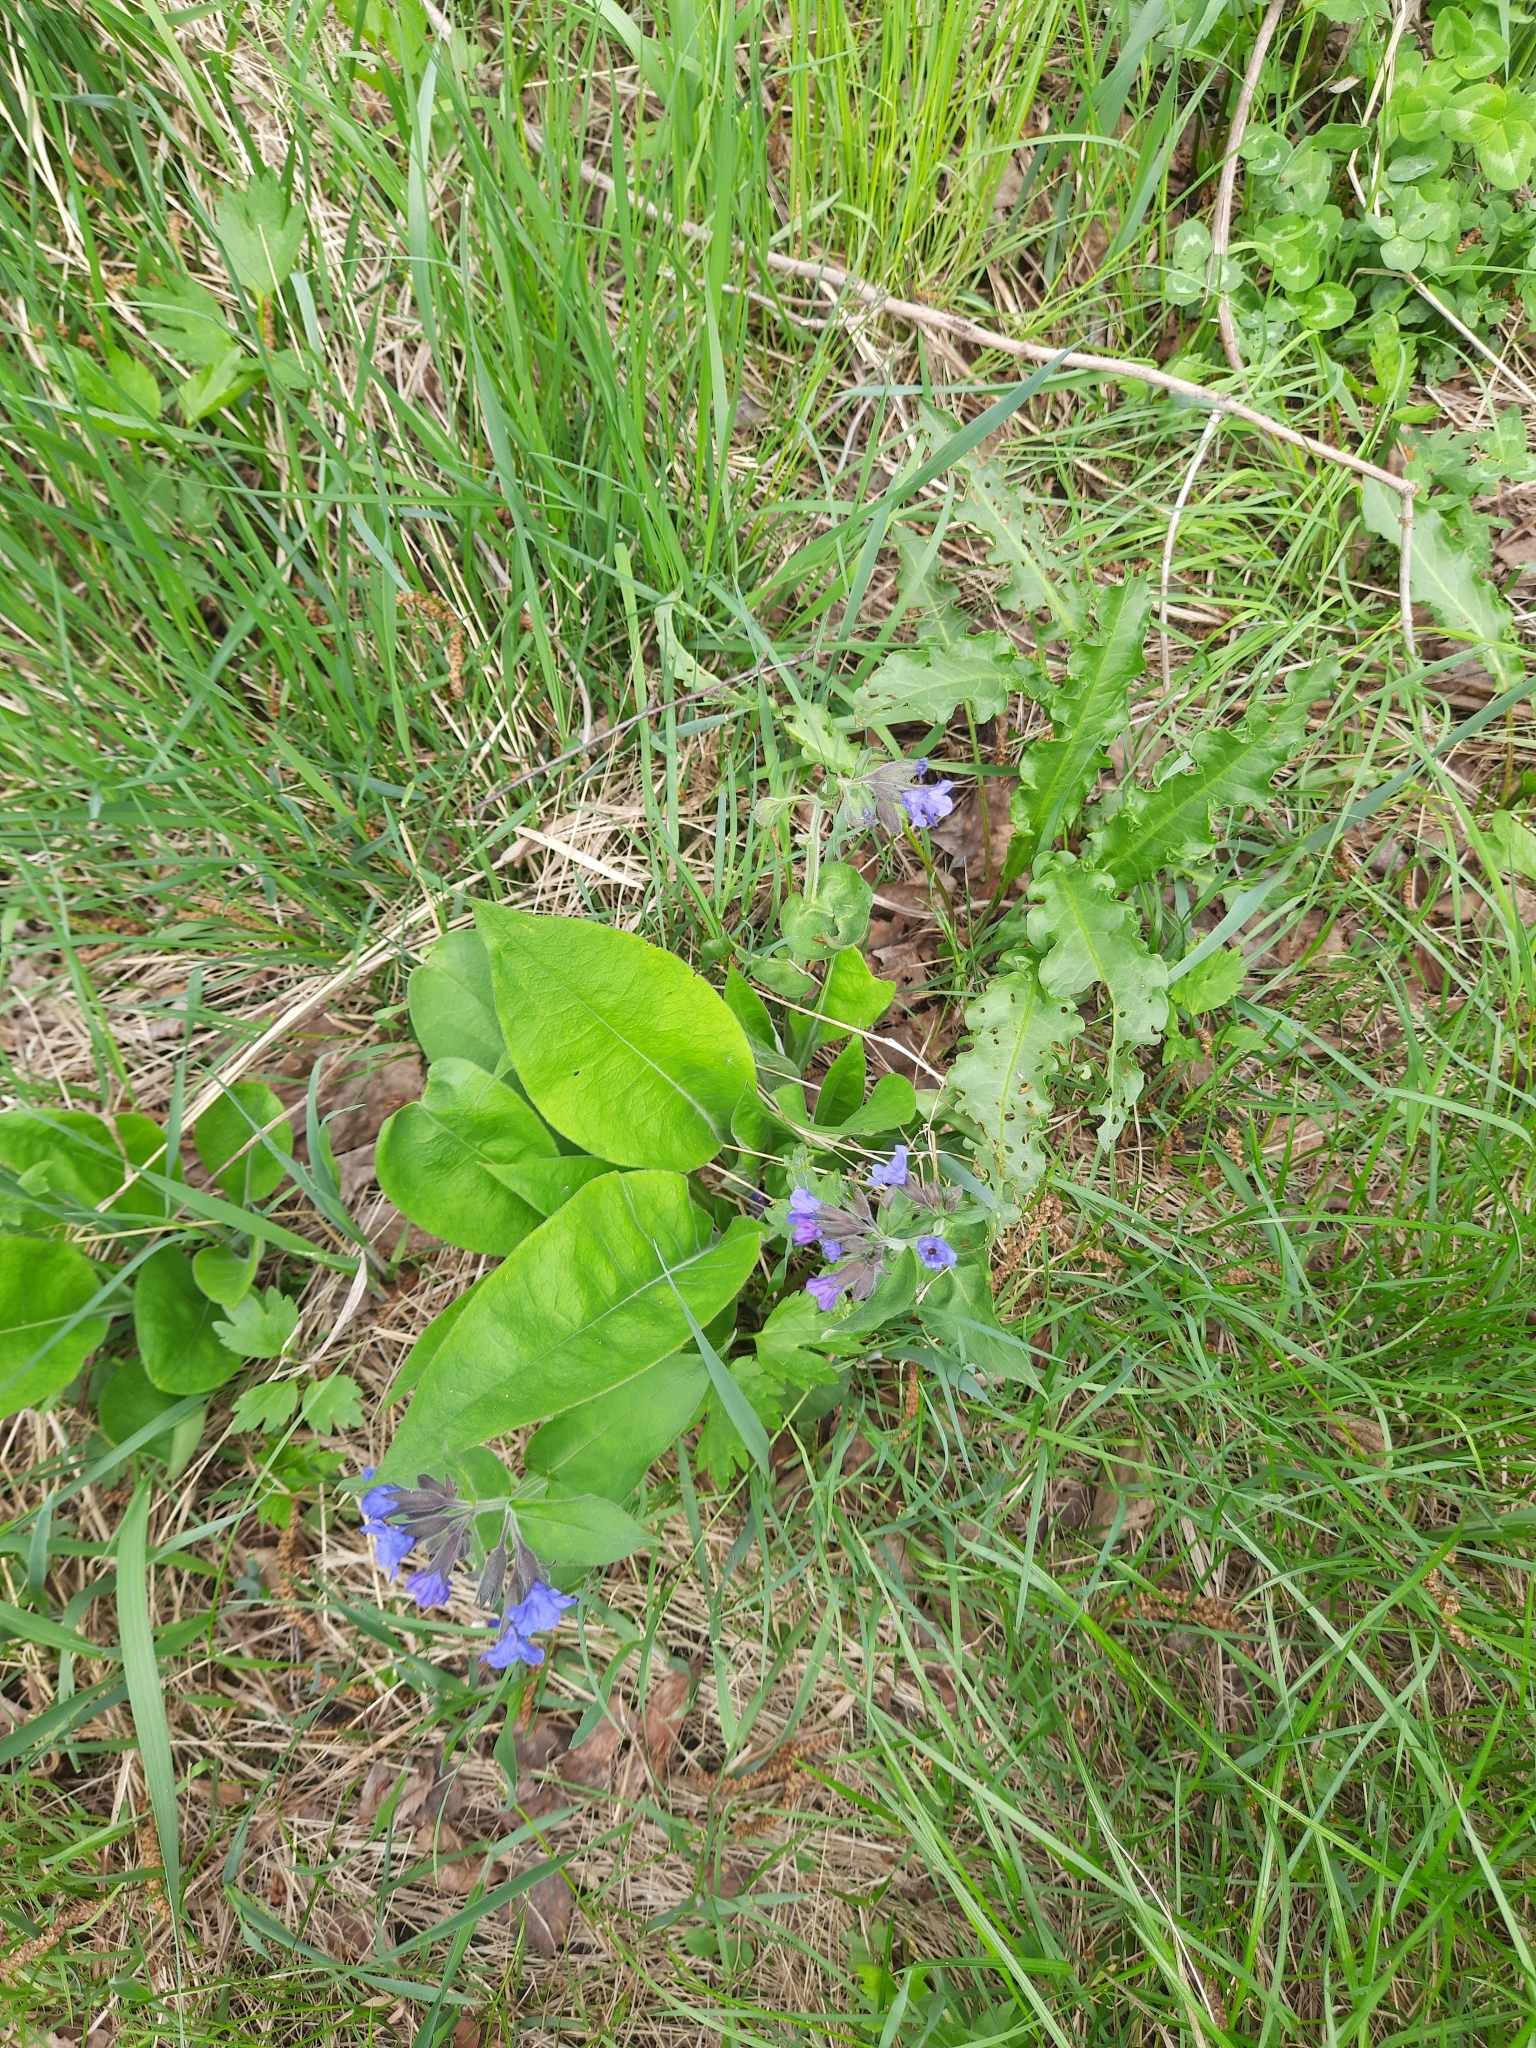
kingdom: Plantae
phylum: Tracheophyta
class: Magnoliopsida
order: Boraginales
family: Boraginaceae
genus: Pulmonaria
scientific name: Pulmonaria mollis
